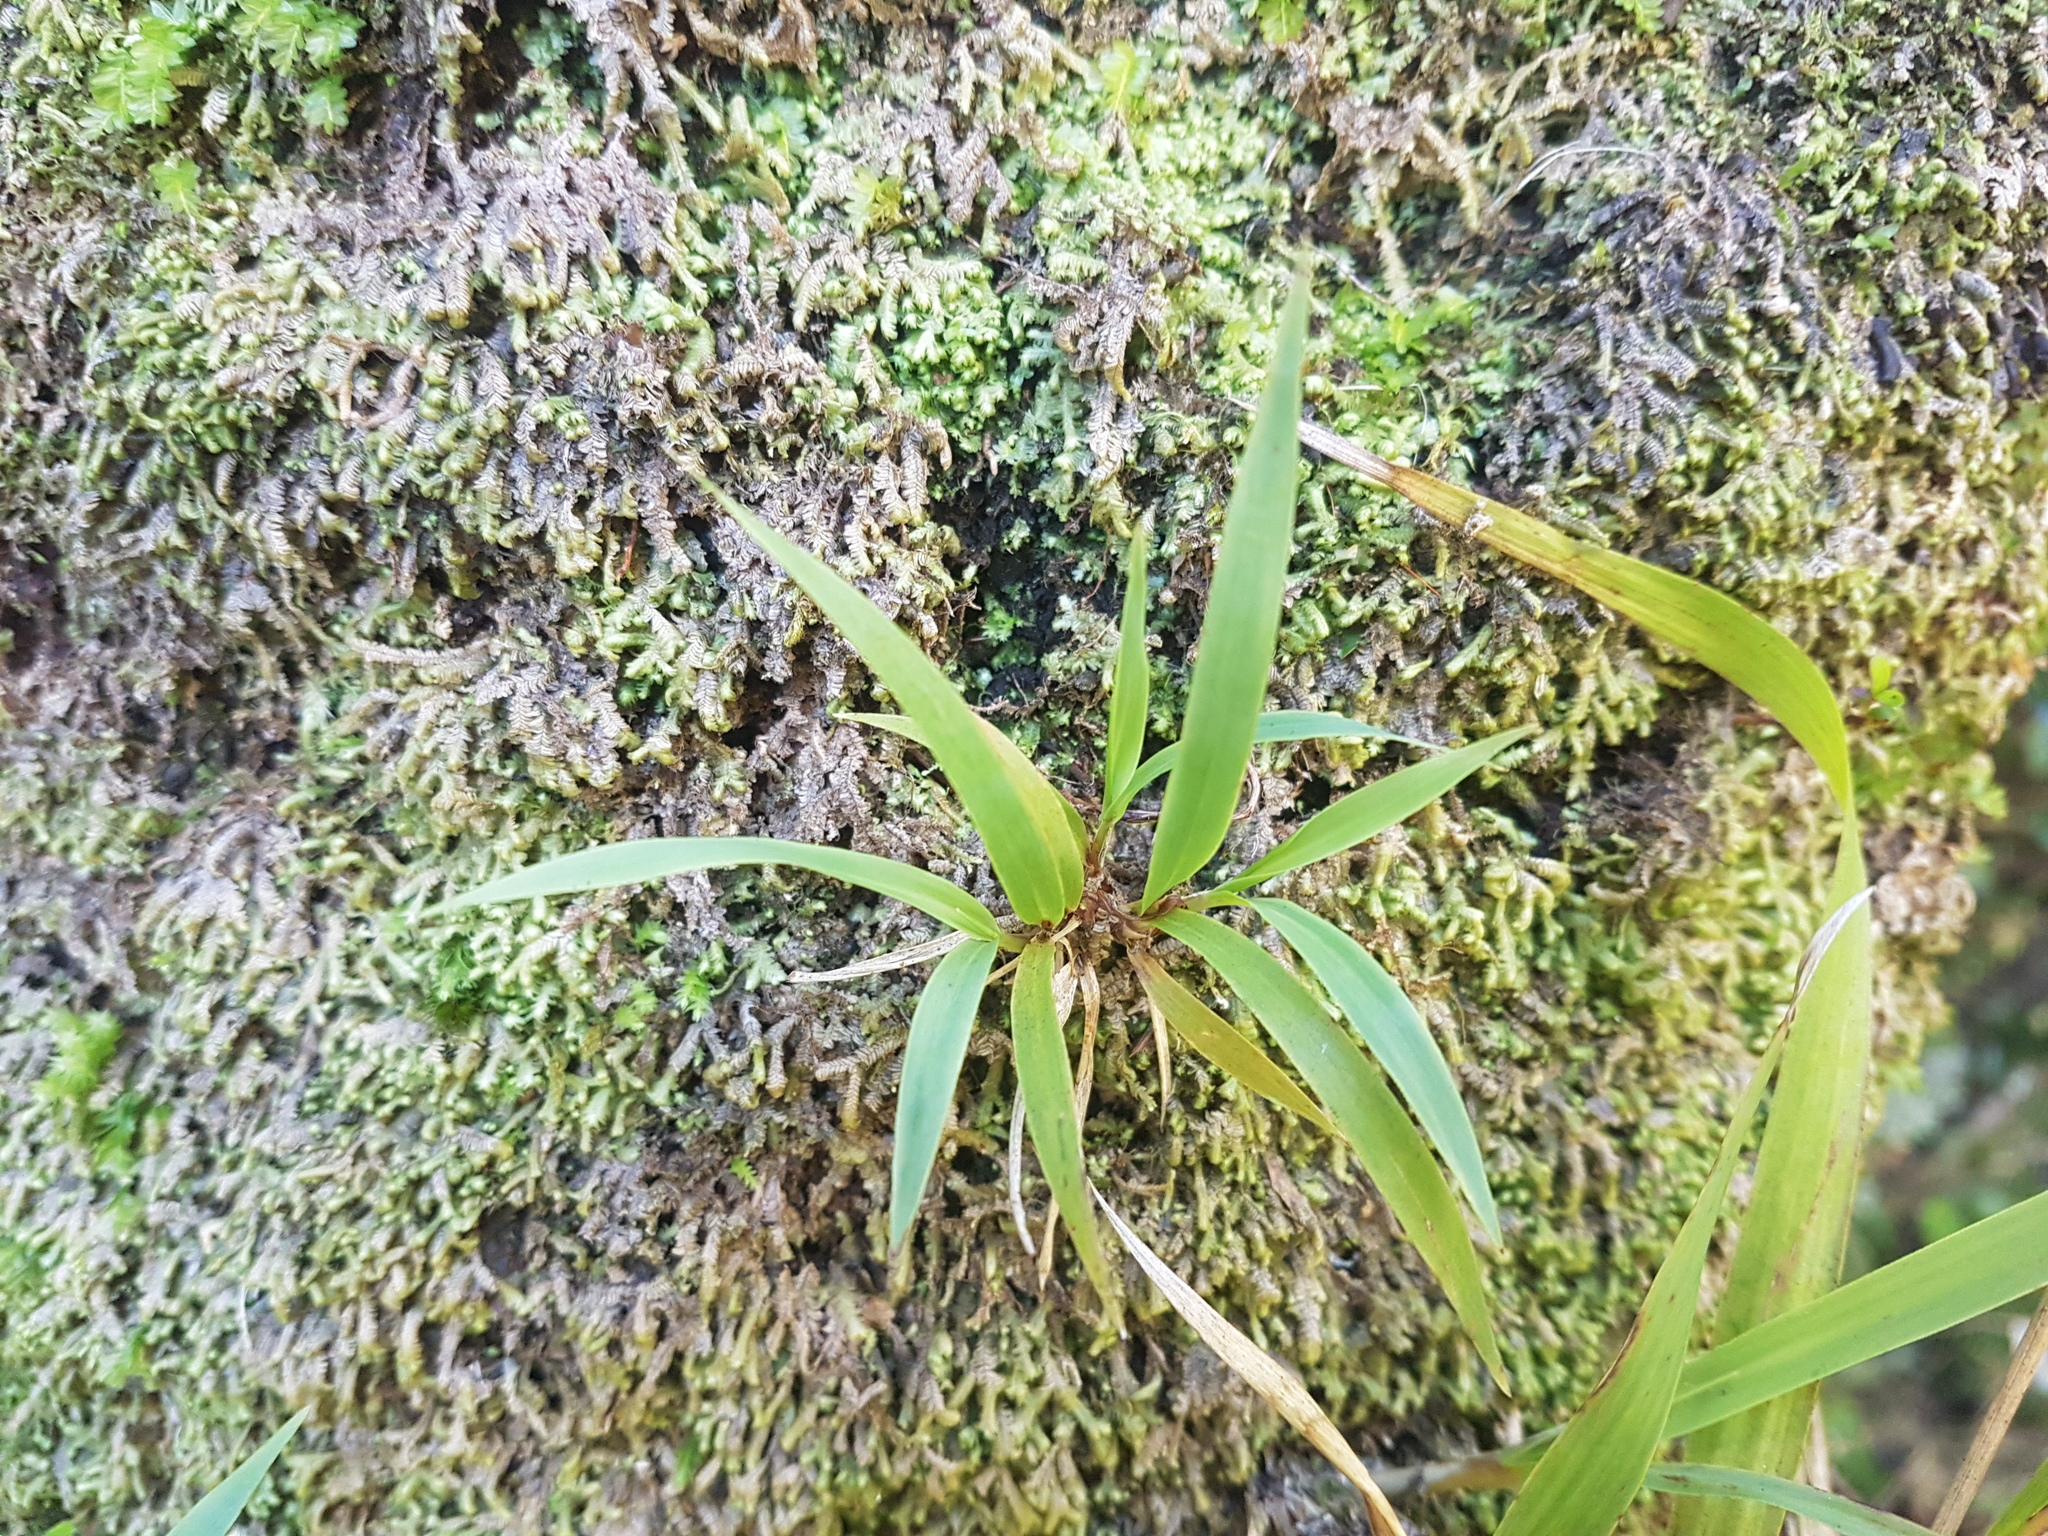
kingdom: Plantae
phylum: Tracheophyta
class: Liliopsida
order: Poales
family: Poaceae
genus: Ehrharta
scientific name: Ehrharta diplax
